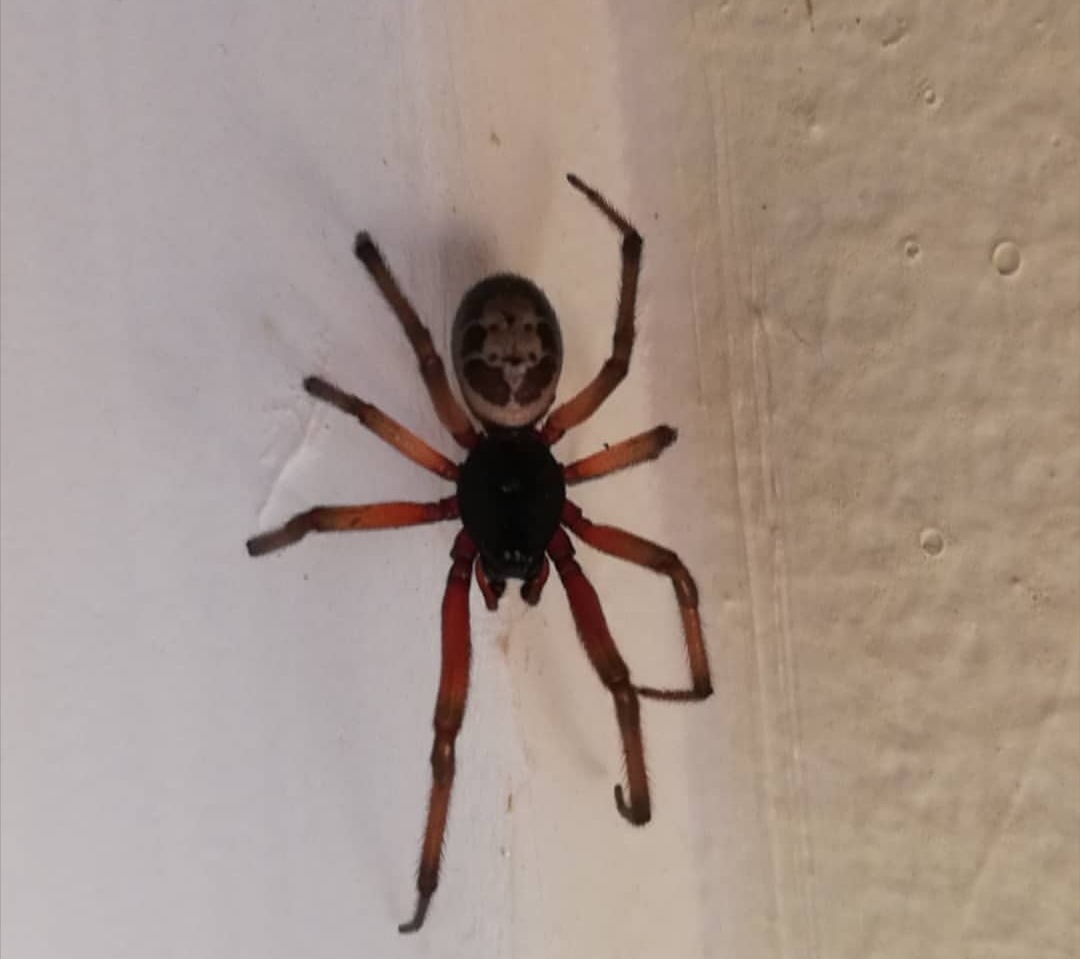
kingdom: Animalia
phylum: Arthropoda
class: Arachnida
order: Araneae
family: Theridiidae
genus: Steatoda
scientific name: Steatoda nobilis
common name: Cobweb weaver
